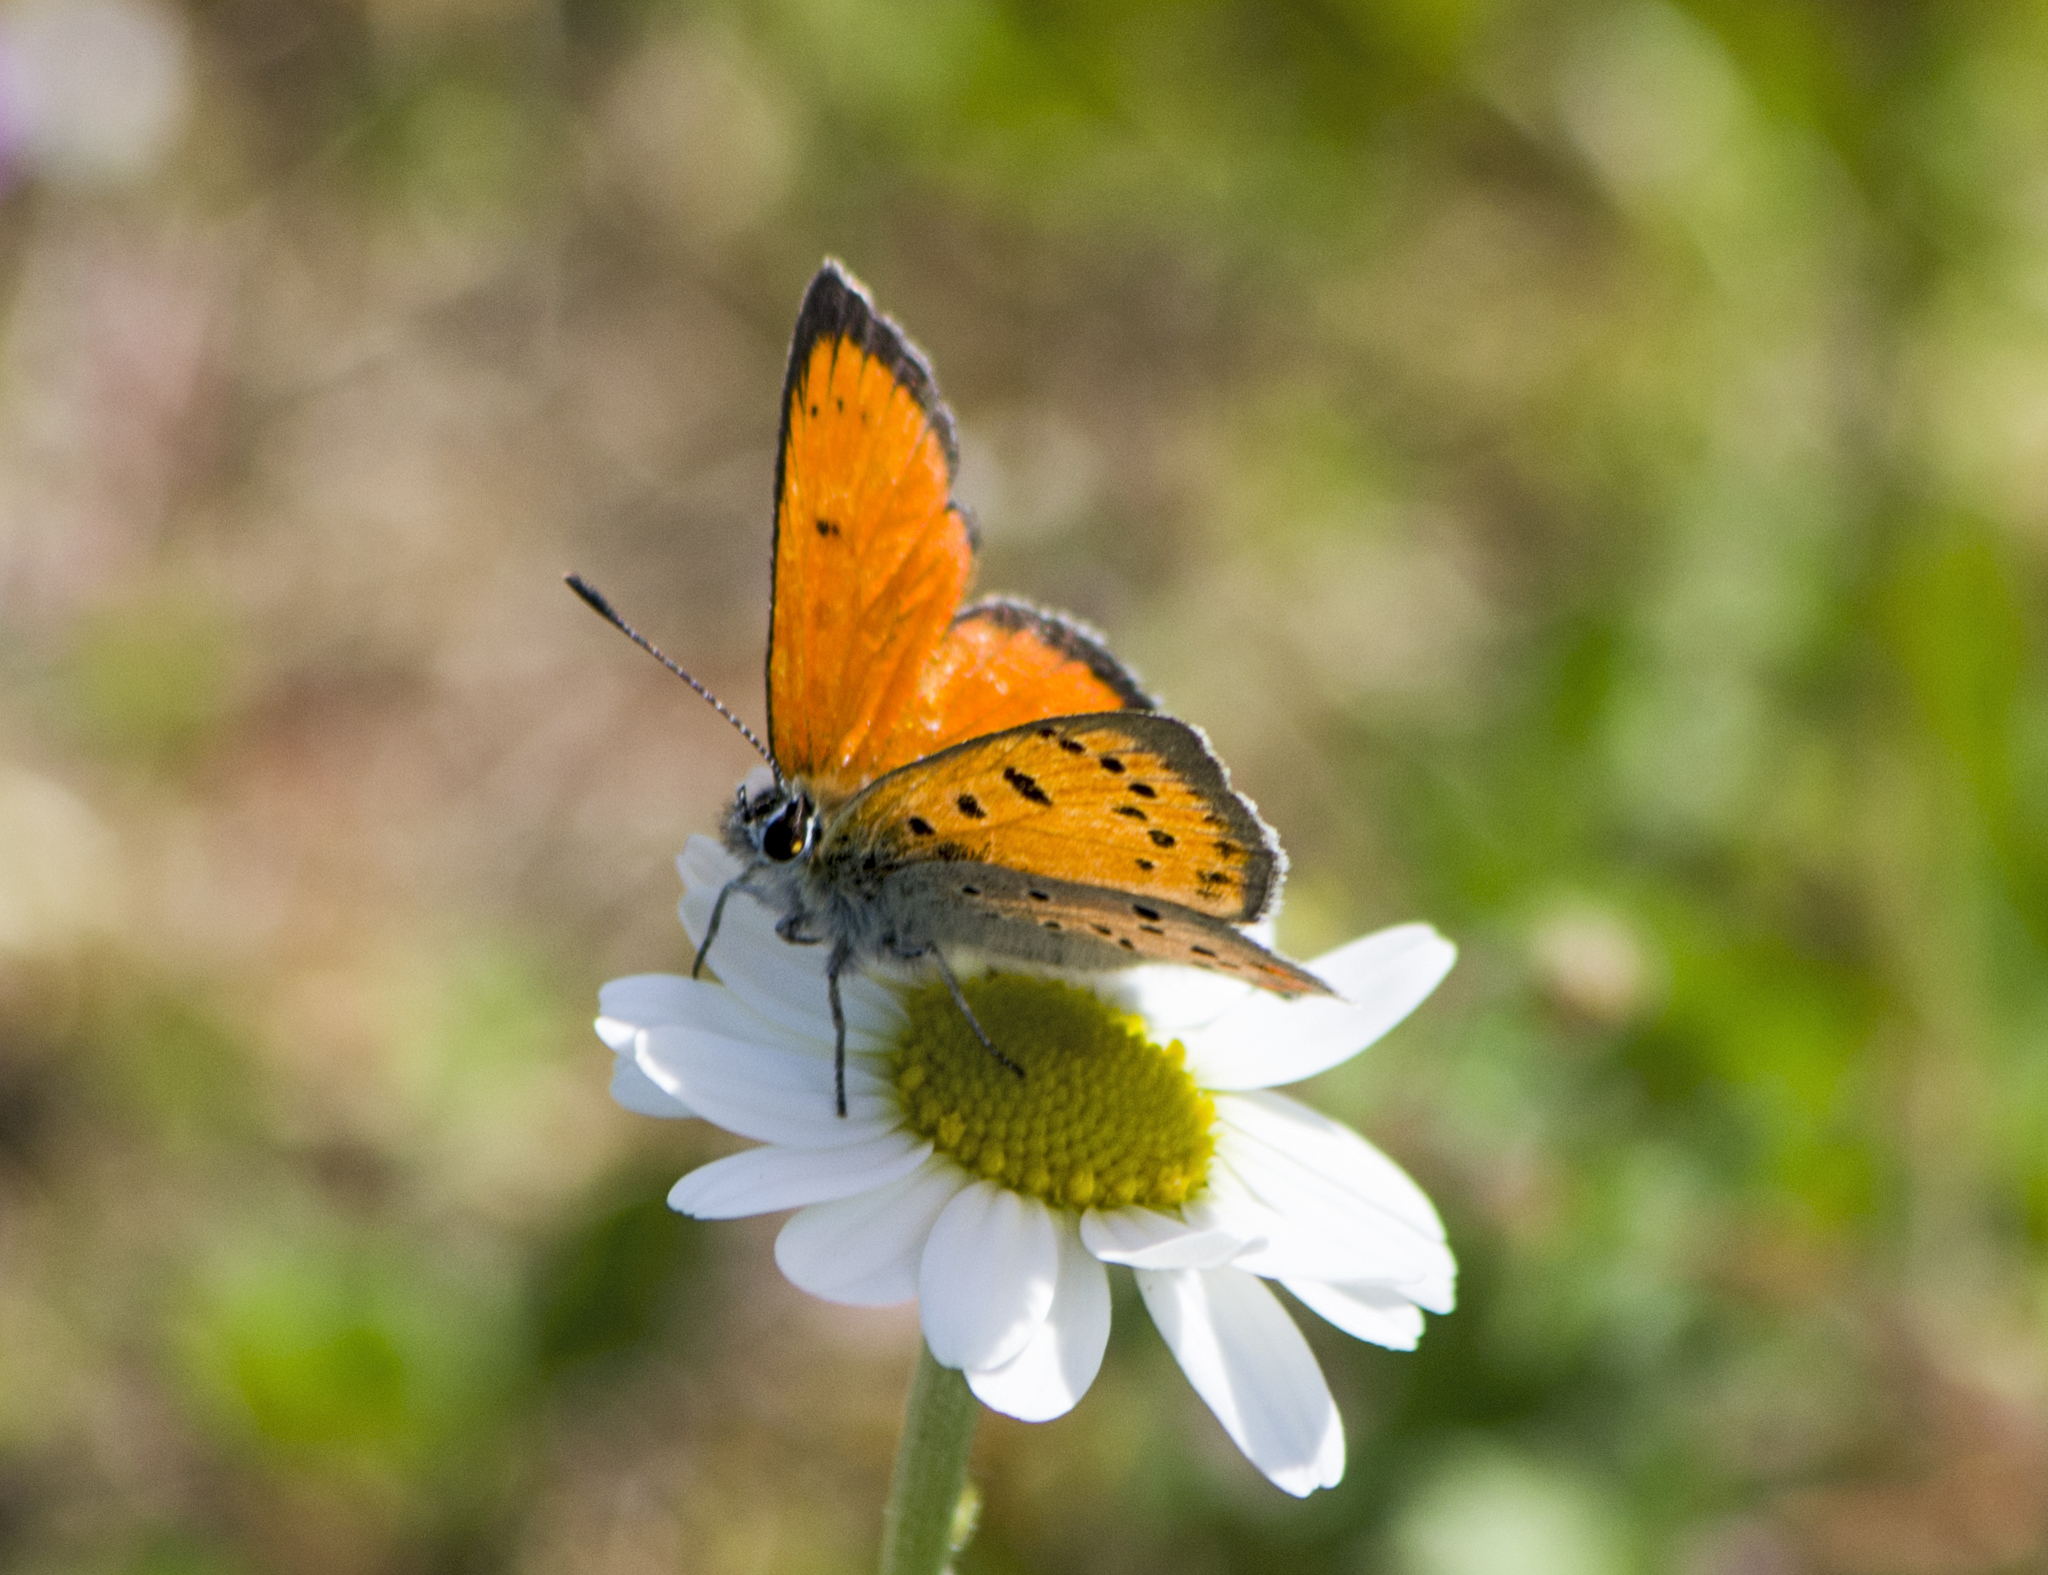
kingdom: Animalia
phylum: Arthropoda
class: Insecta
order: Lepidoptera
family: Lycaenidae
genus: Polyommatus
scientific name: Polyommatus ottomanus
